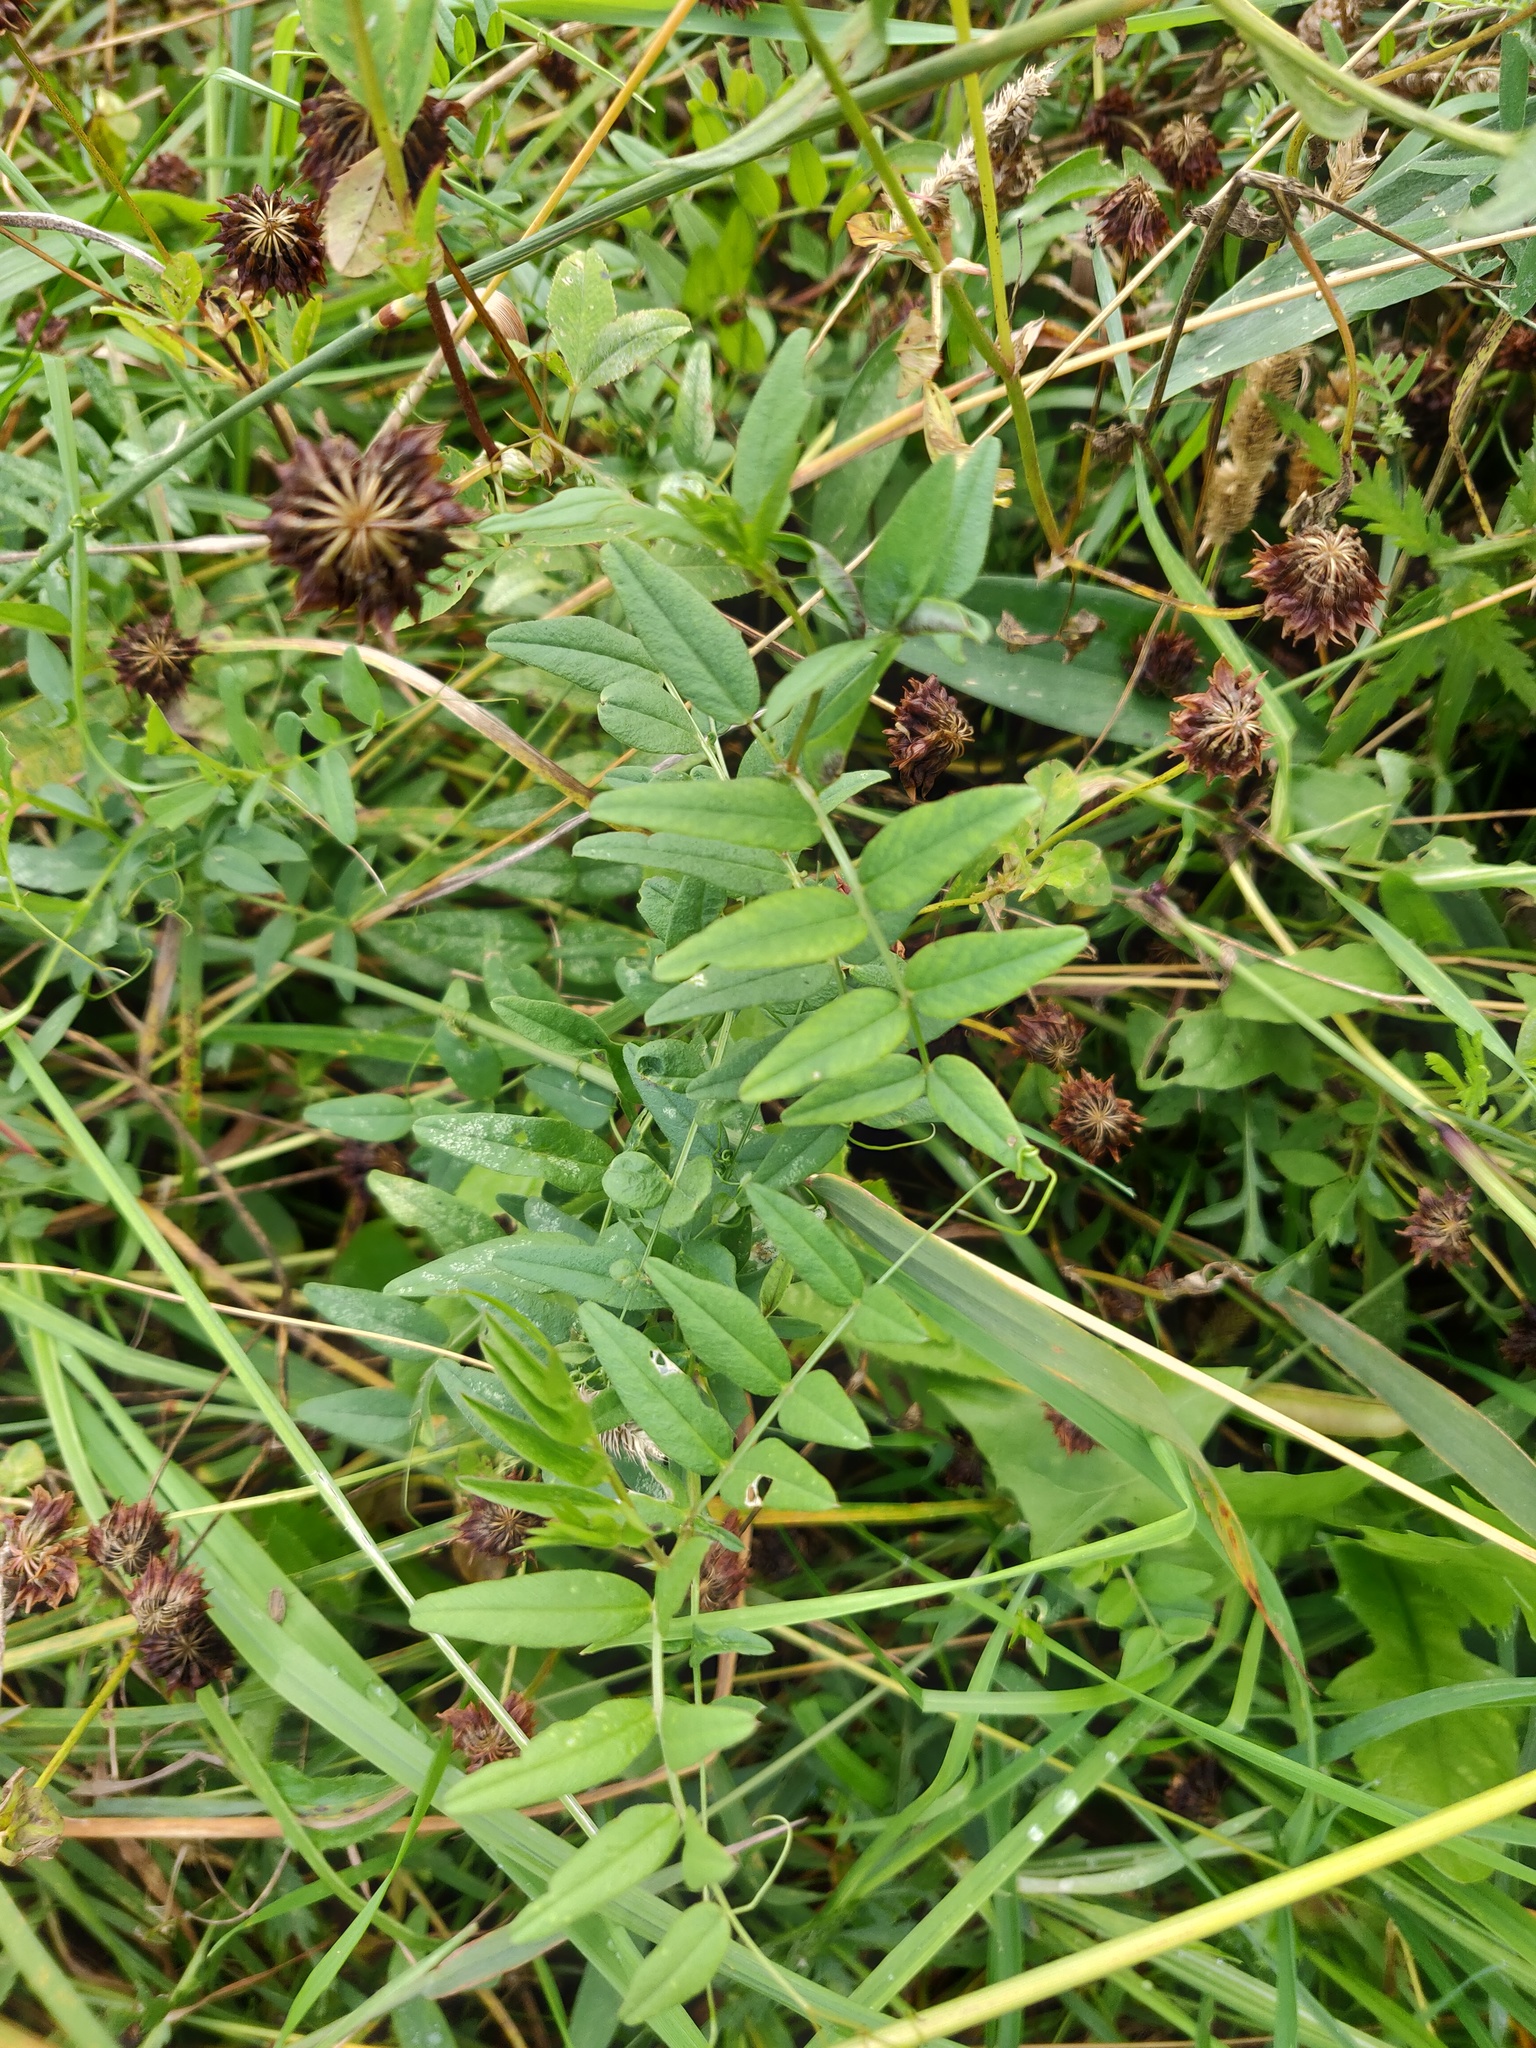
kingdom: Plantae
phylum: Tracheophyta
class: Magnoliopsida
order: Fabales
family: Fabaceae
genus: Vicia
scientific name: Vicia sepium
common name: Bush vetch
